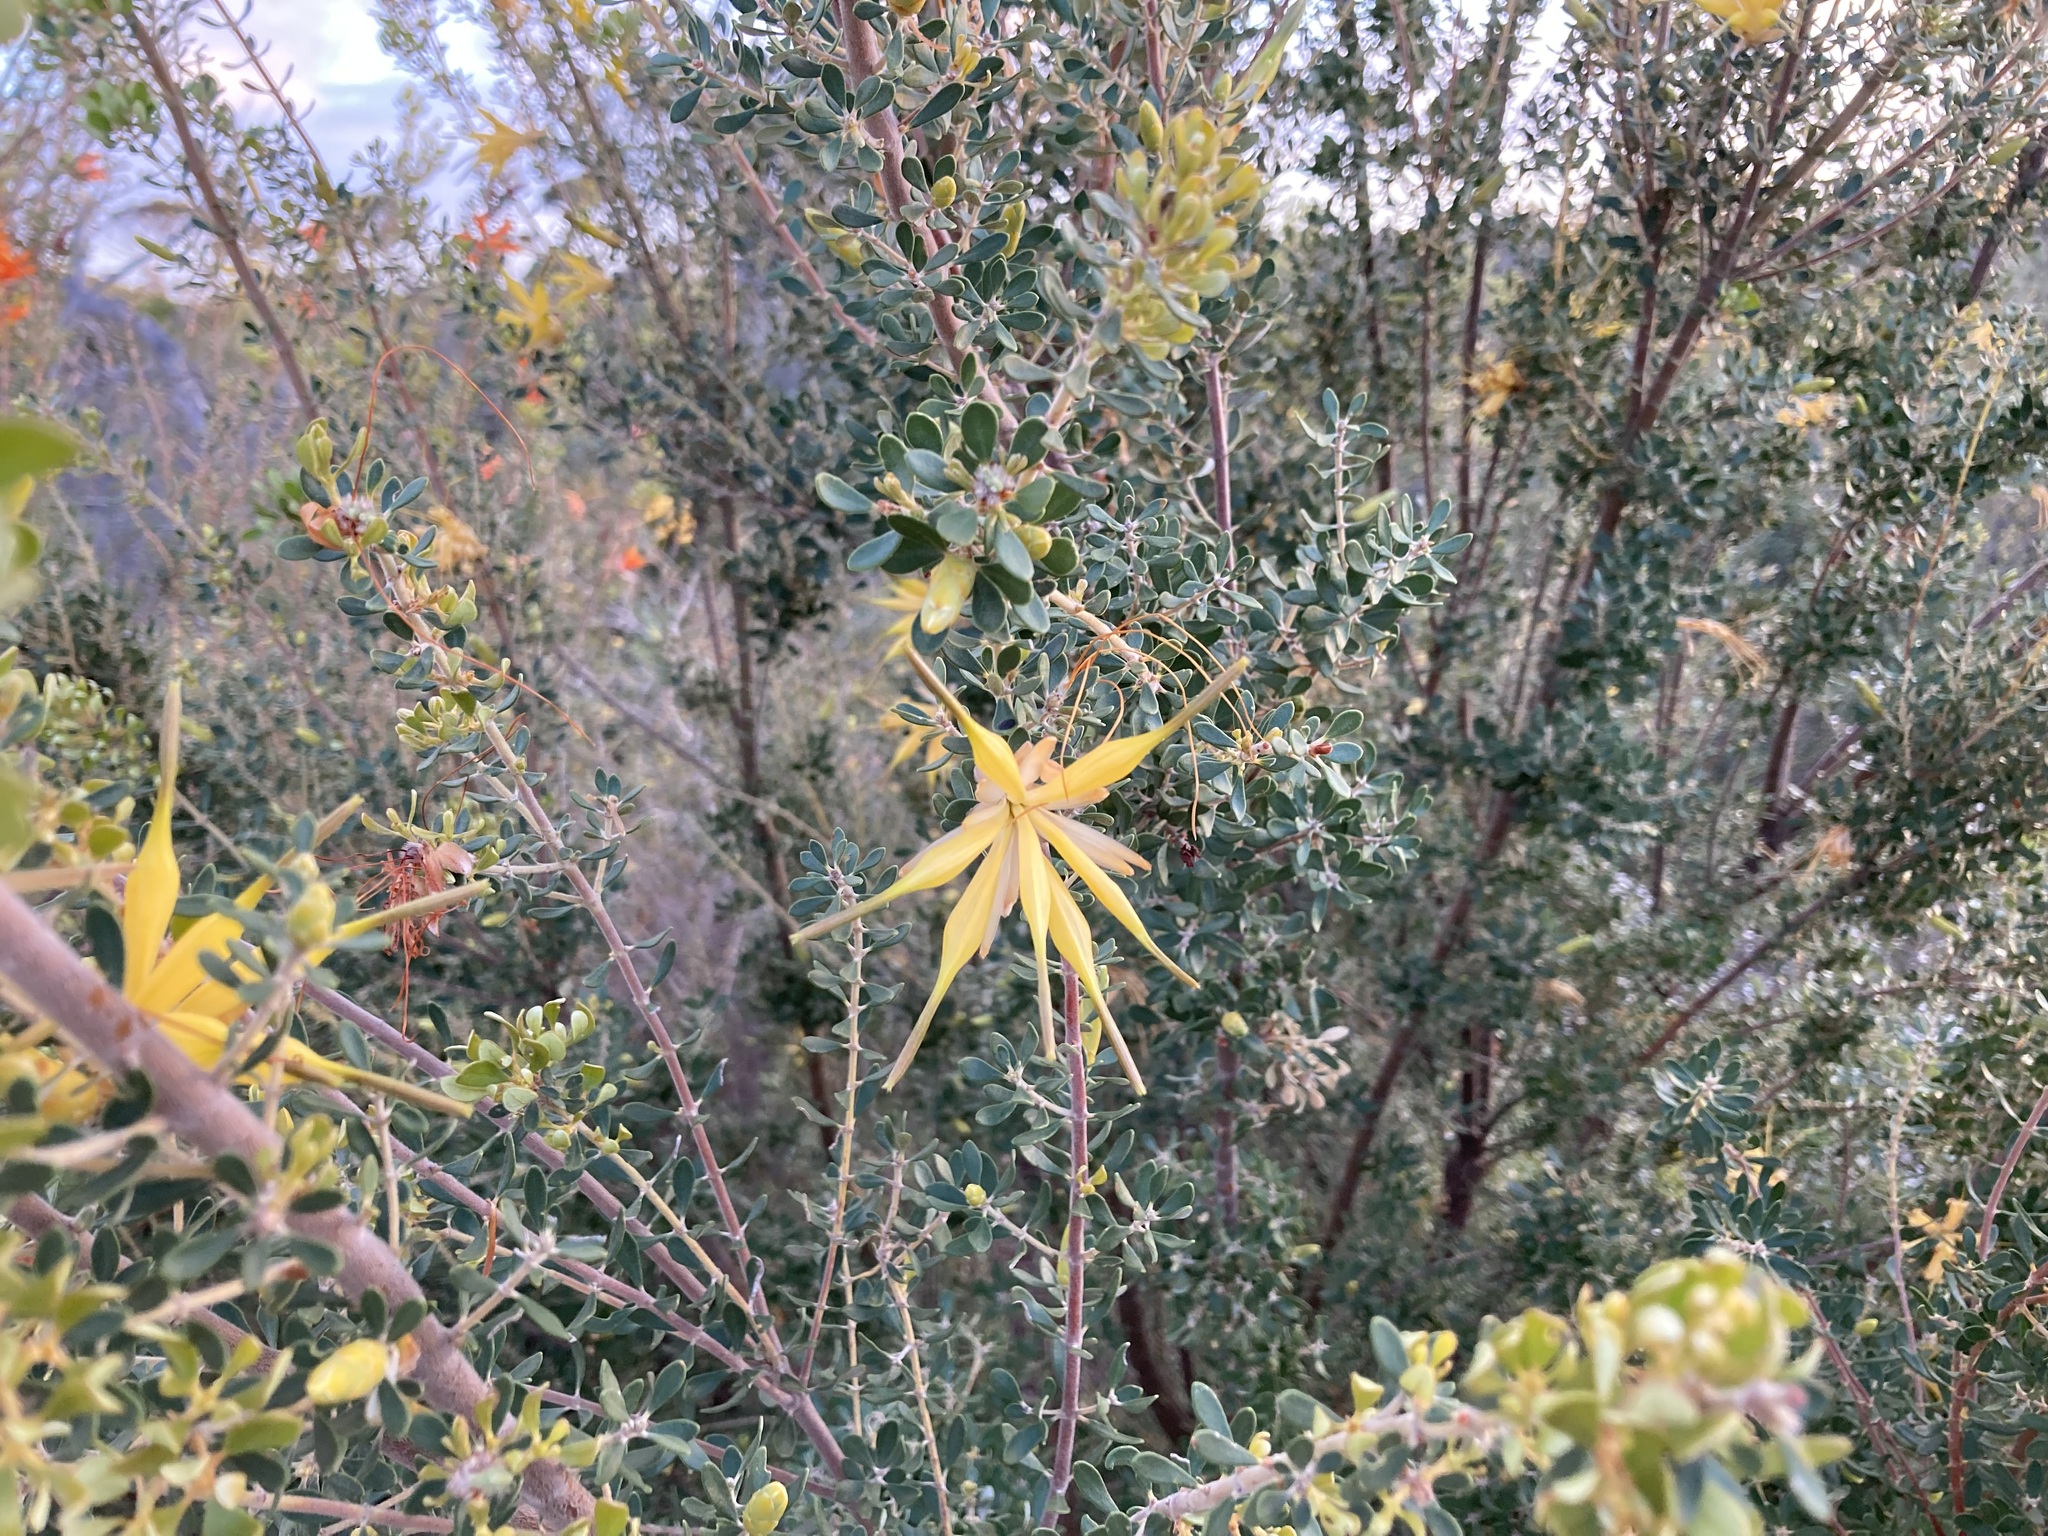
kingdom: Plantae
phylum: Tracheophyta
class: Magnoliopsida
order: Proteales
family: Proteaceae
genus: Lambertia
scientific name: Lambertia inermis
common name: Chittick
